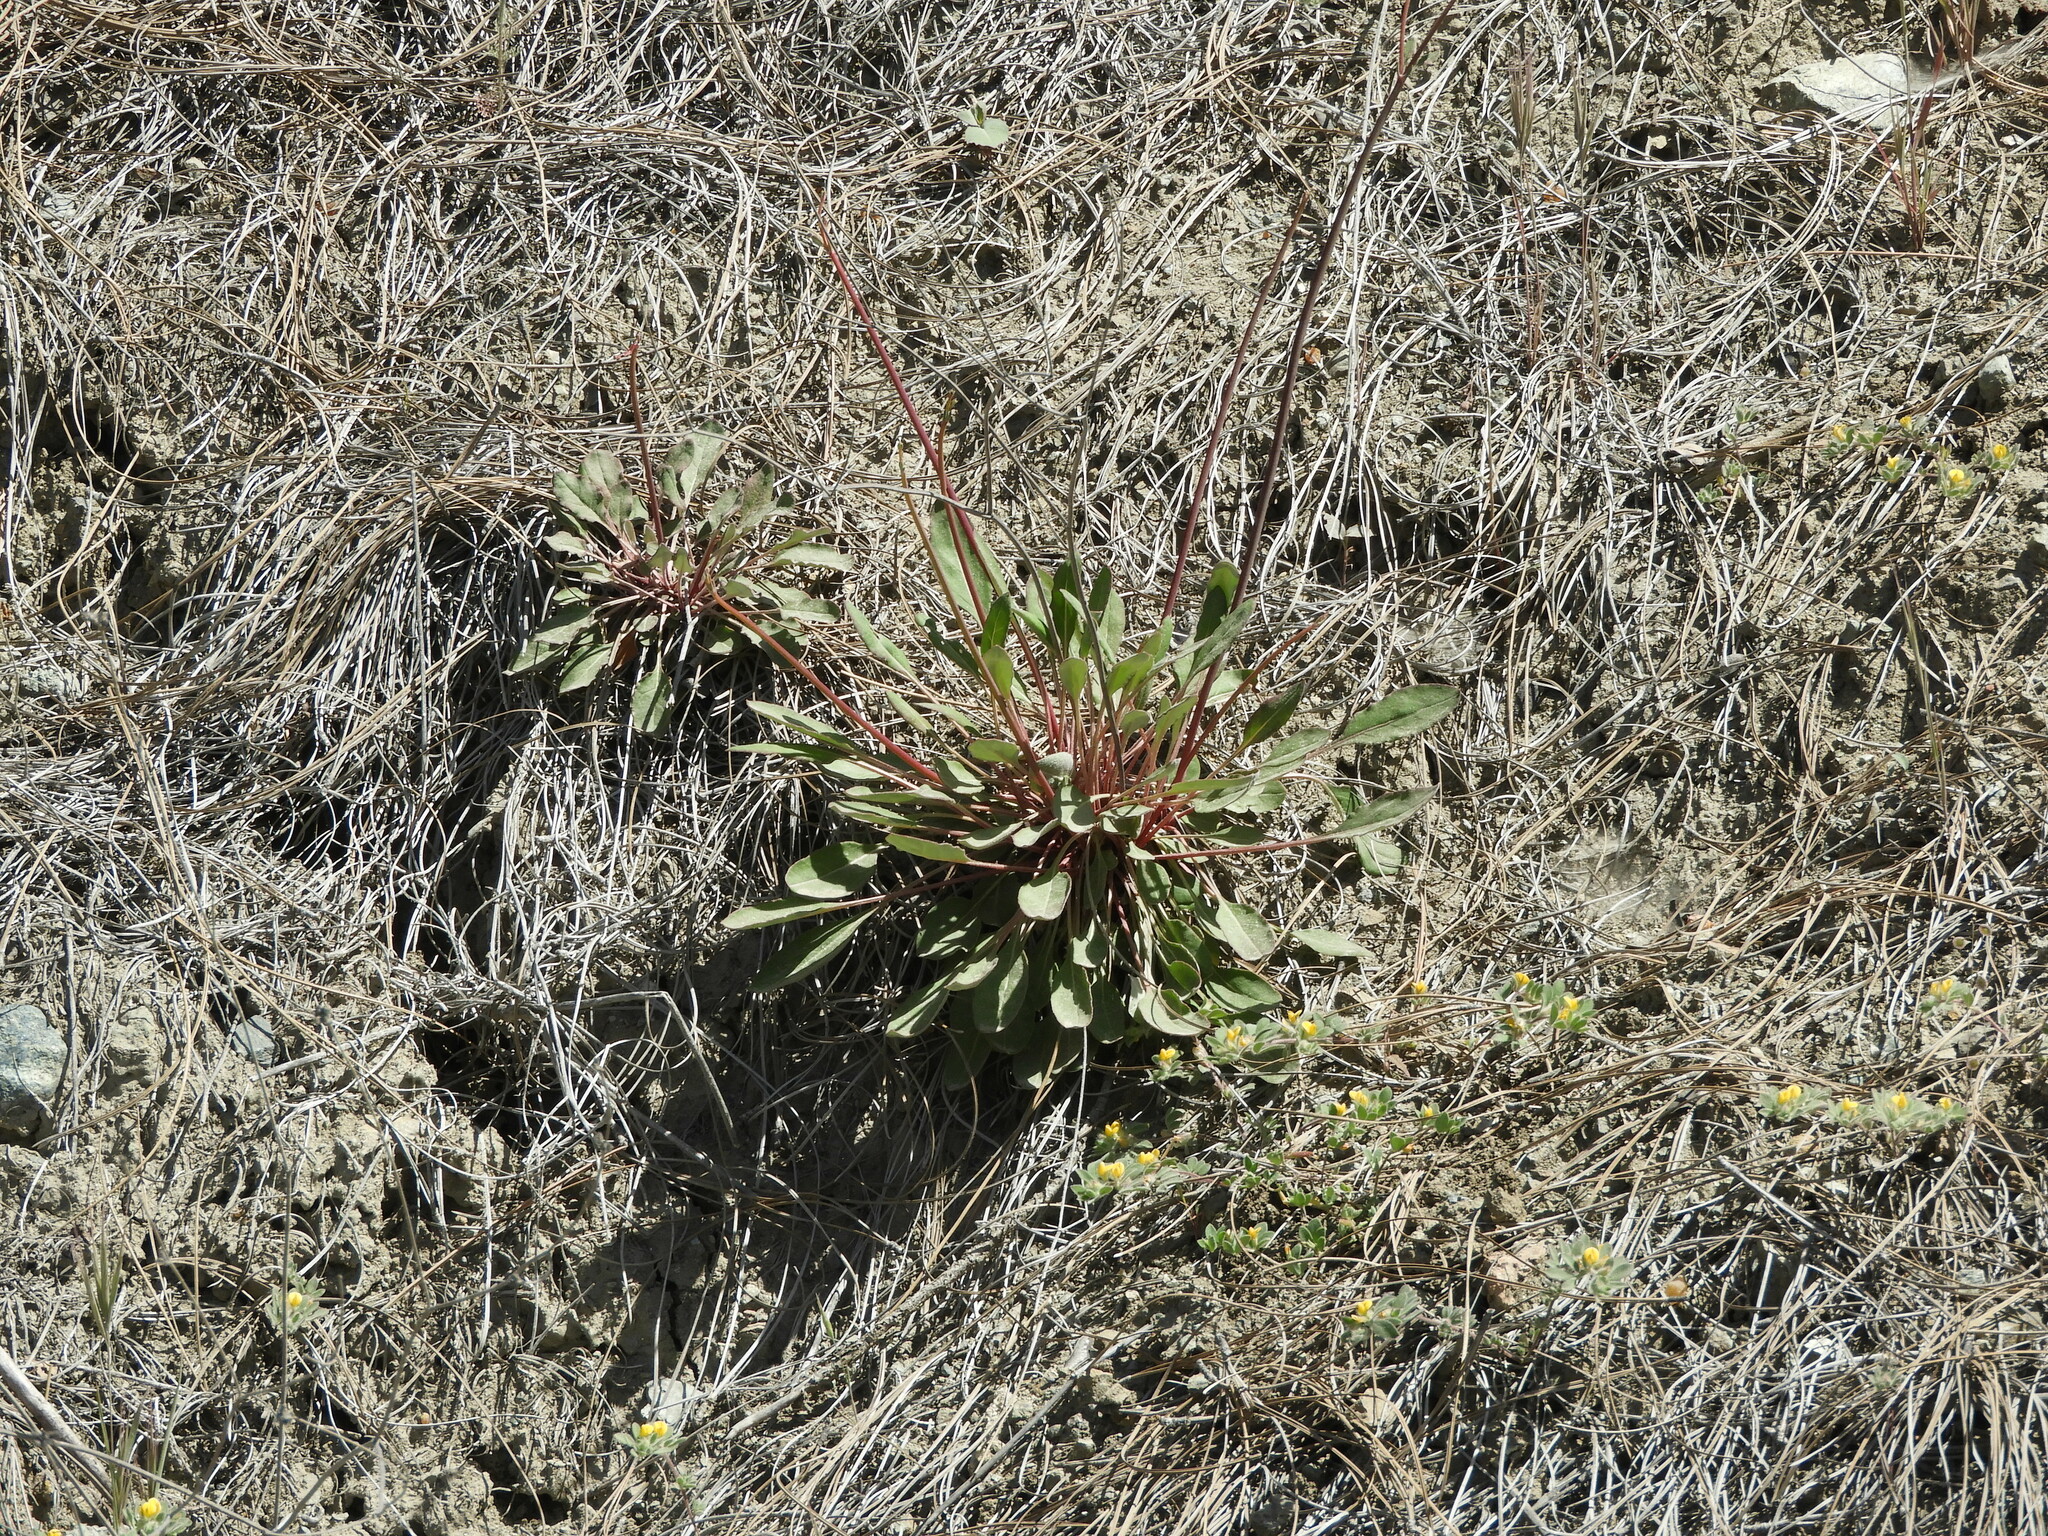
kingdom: Plantae
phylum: Tracheophyta
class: Magnoliopsida
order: Caryophyllales
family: Polygonaceae
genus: Eriogonum
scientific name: Eriogonum nudum
